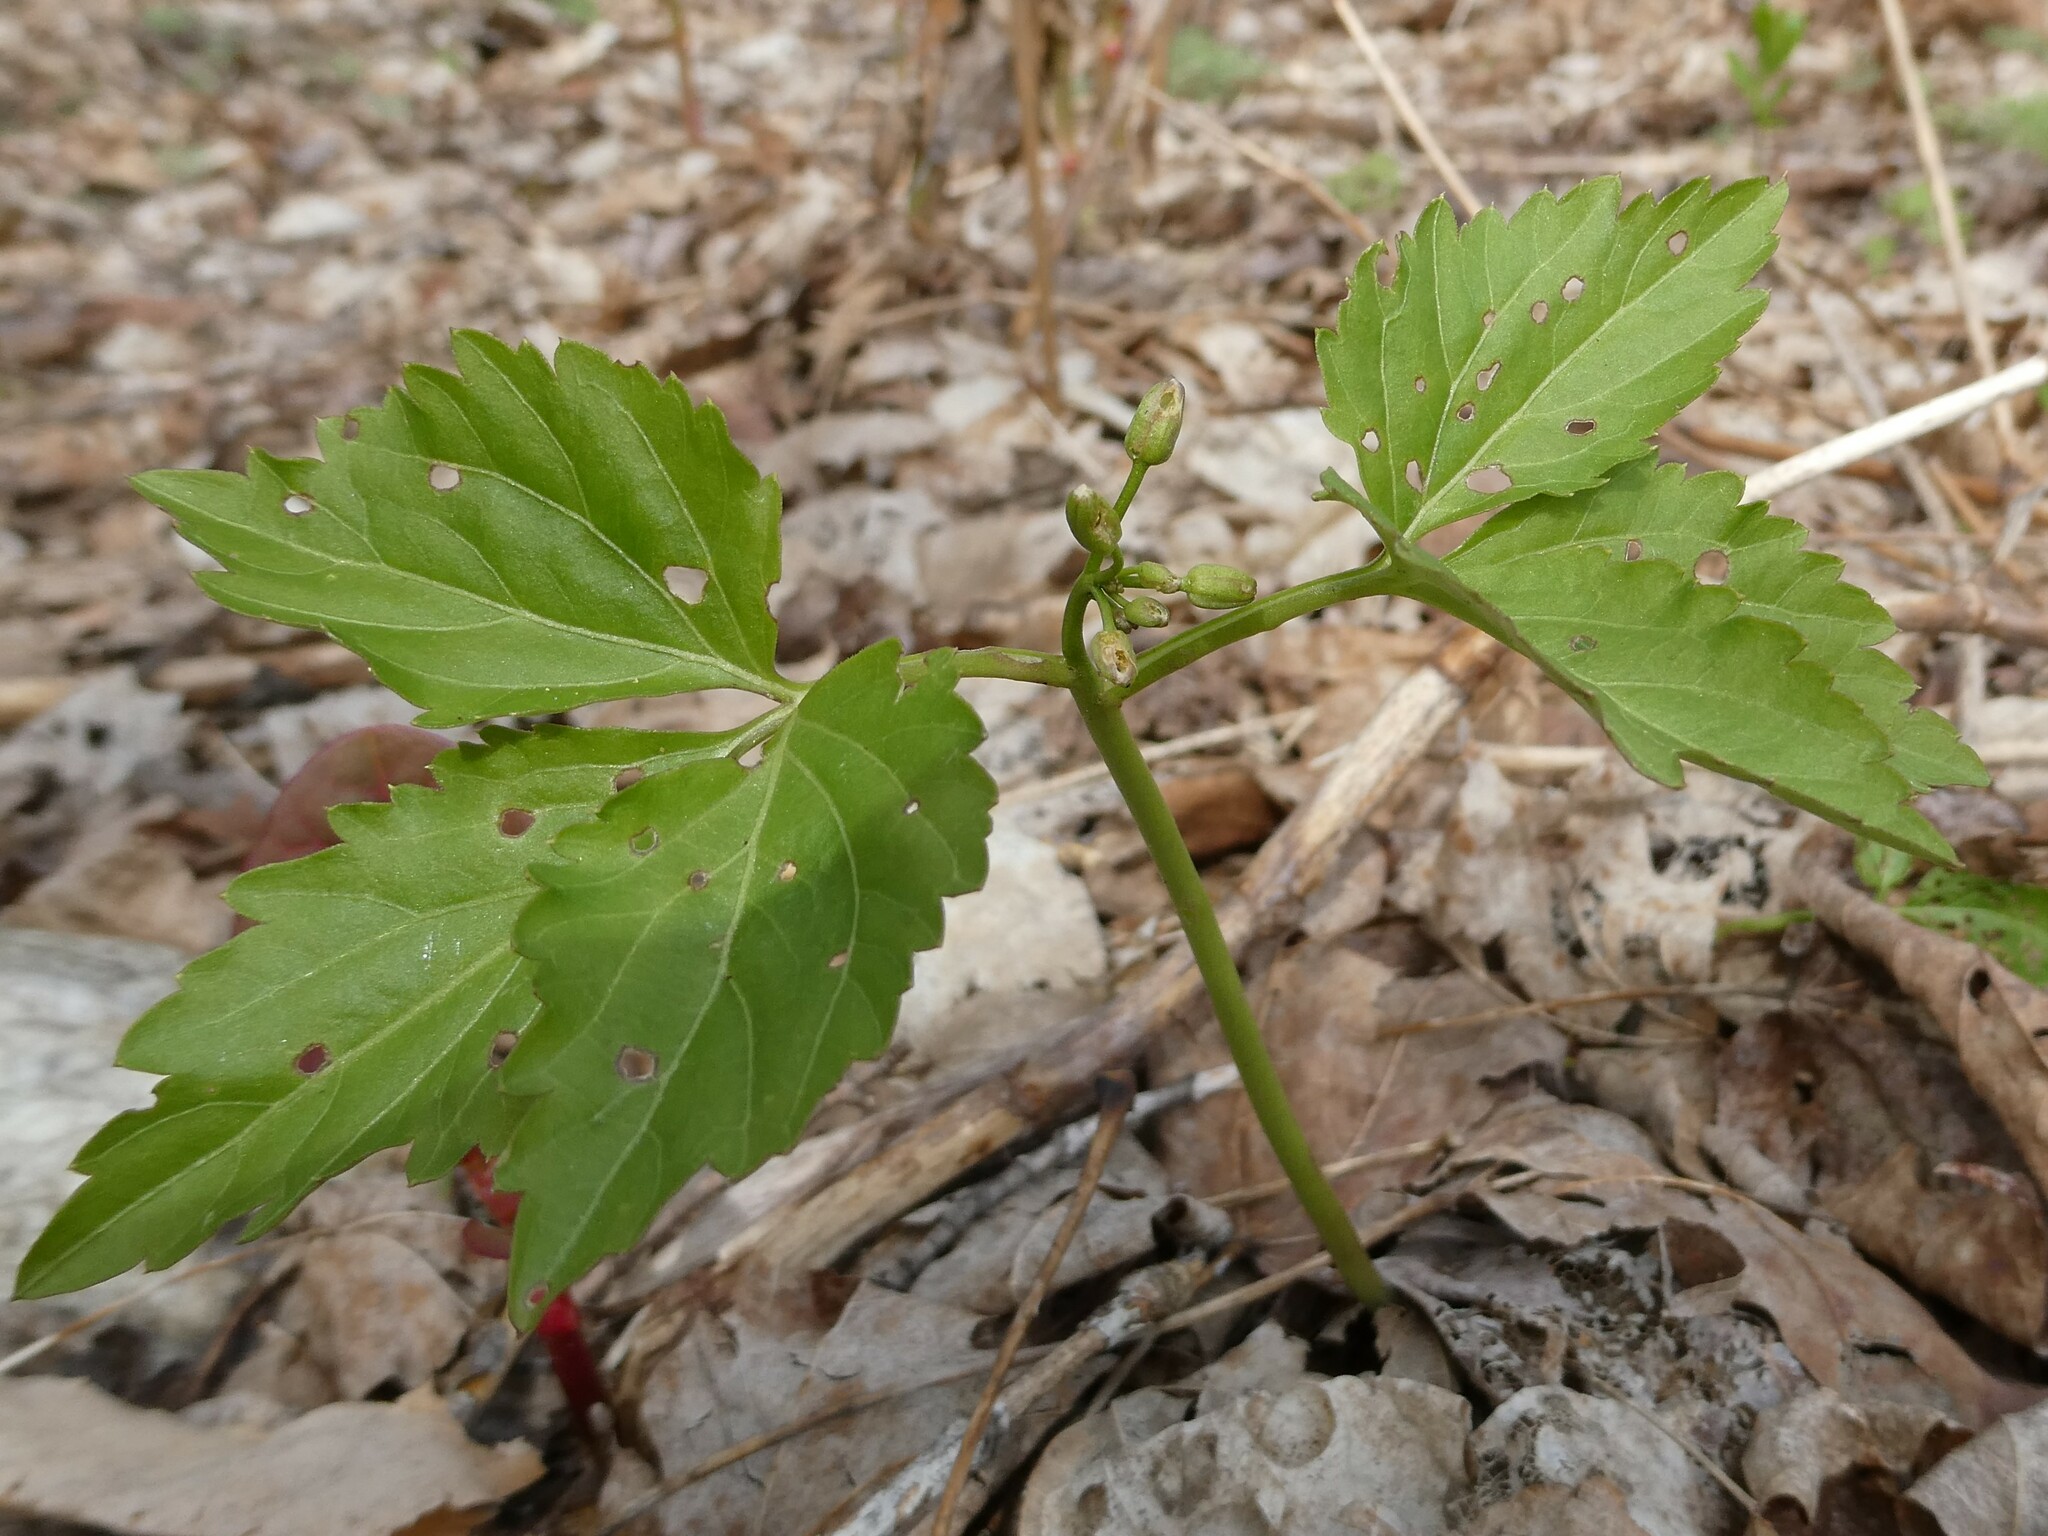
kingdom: Plantae
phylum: Tracheophyta
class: Magnoliopsida
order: Brassicales
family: Brassicaceae
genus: Cardamine
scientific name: Cardamine diphylla
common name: Broad-leaved toothwort
